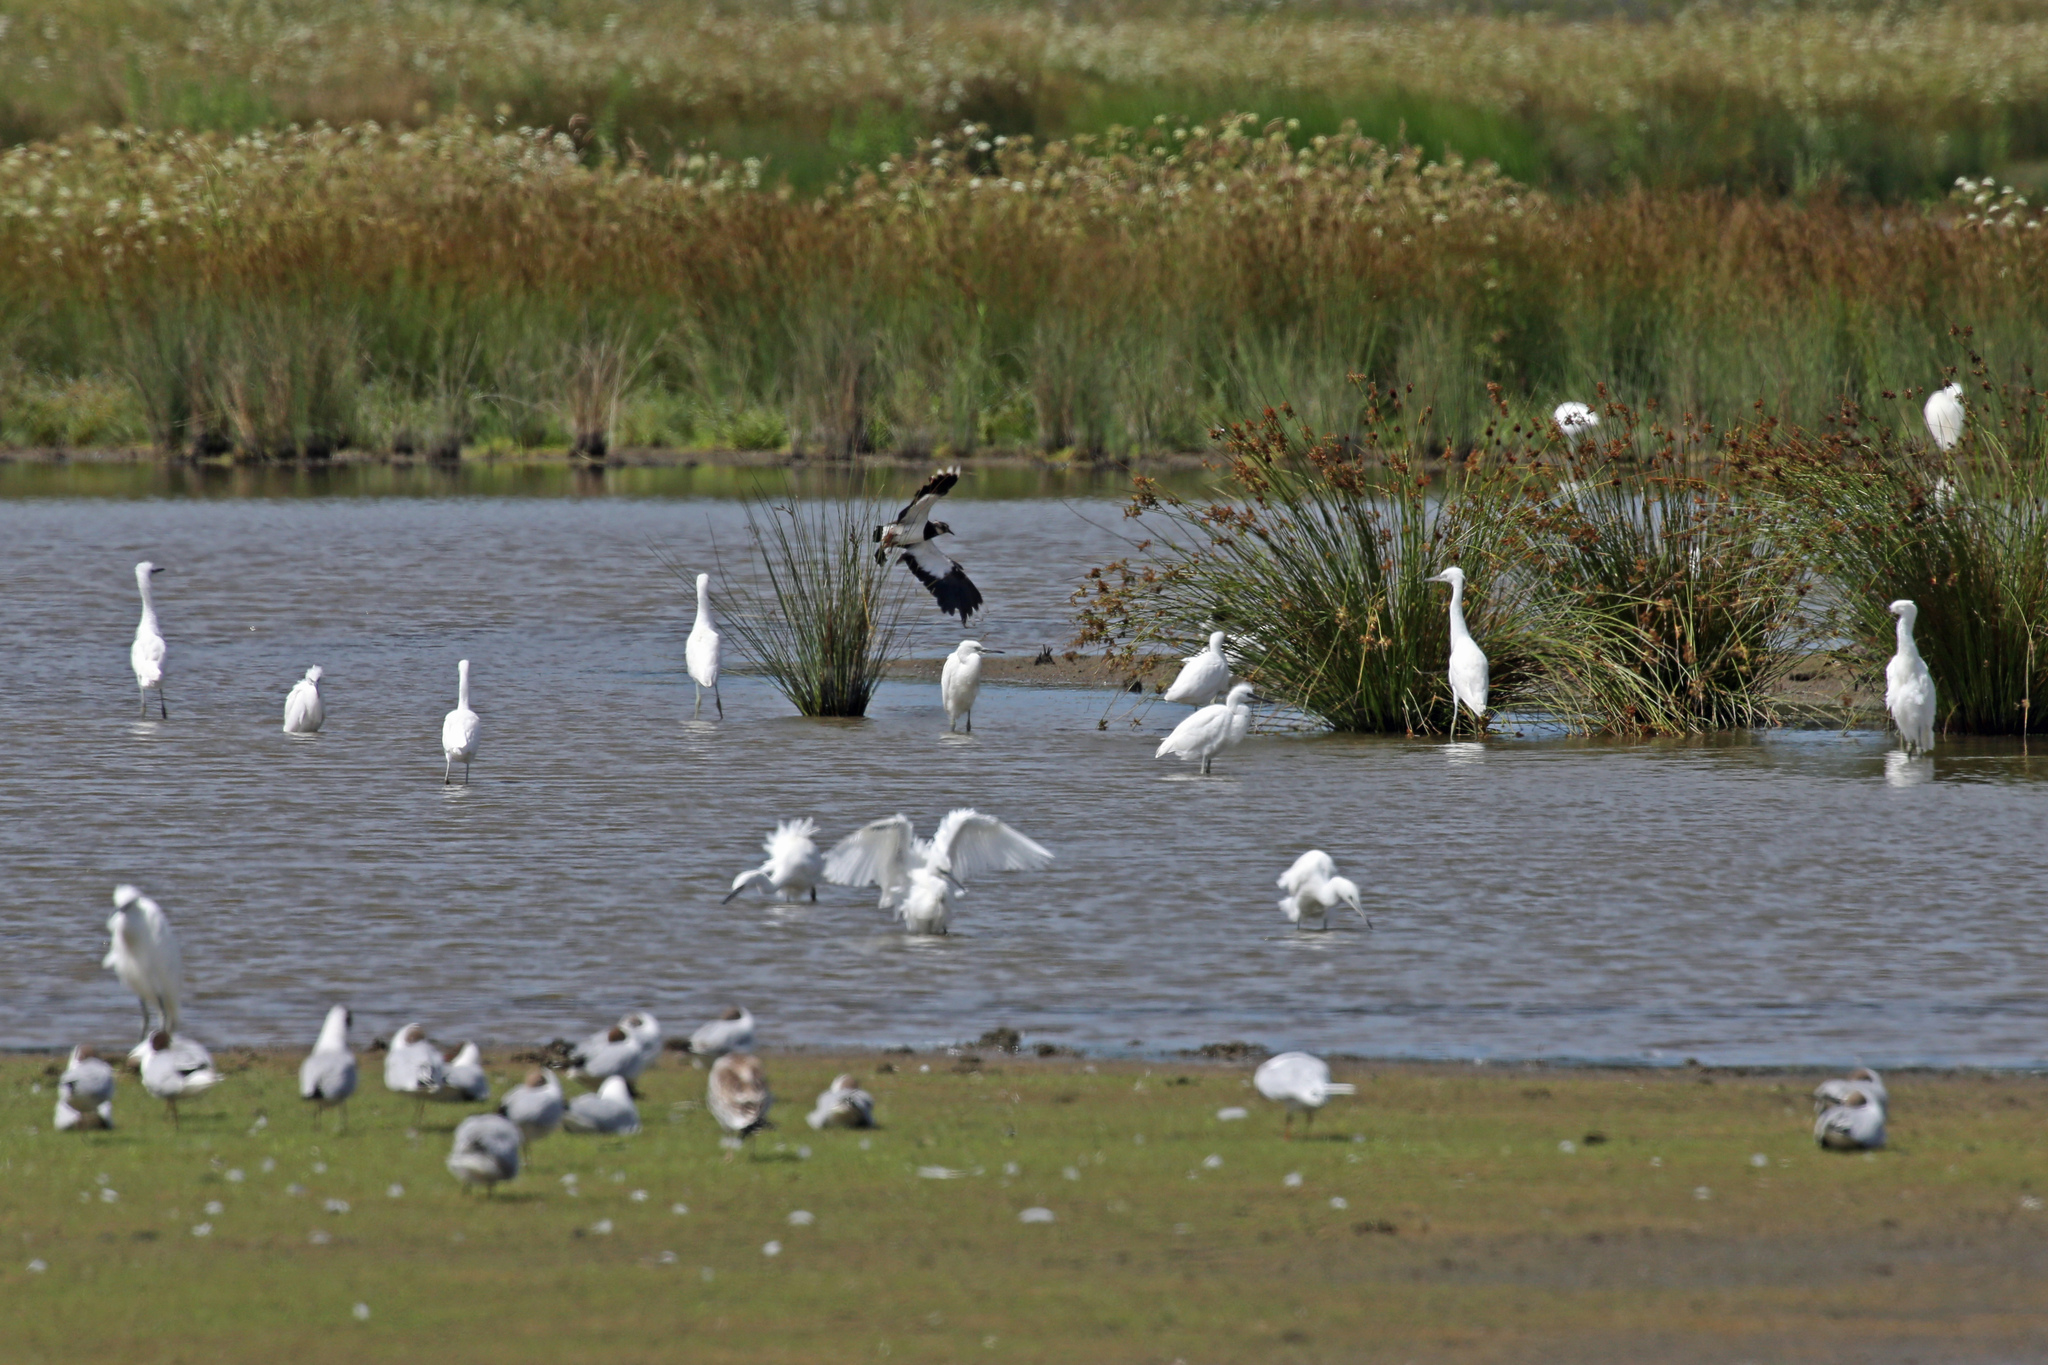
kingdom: Animalia
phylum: Chordata
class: Aves
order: Pelecaniformes
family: Ardeidae
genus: Egretta
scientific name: Egretta garzetta
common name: Little egret
